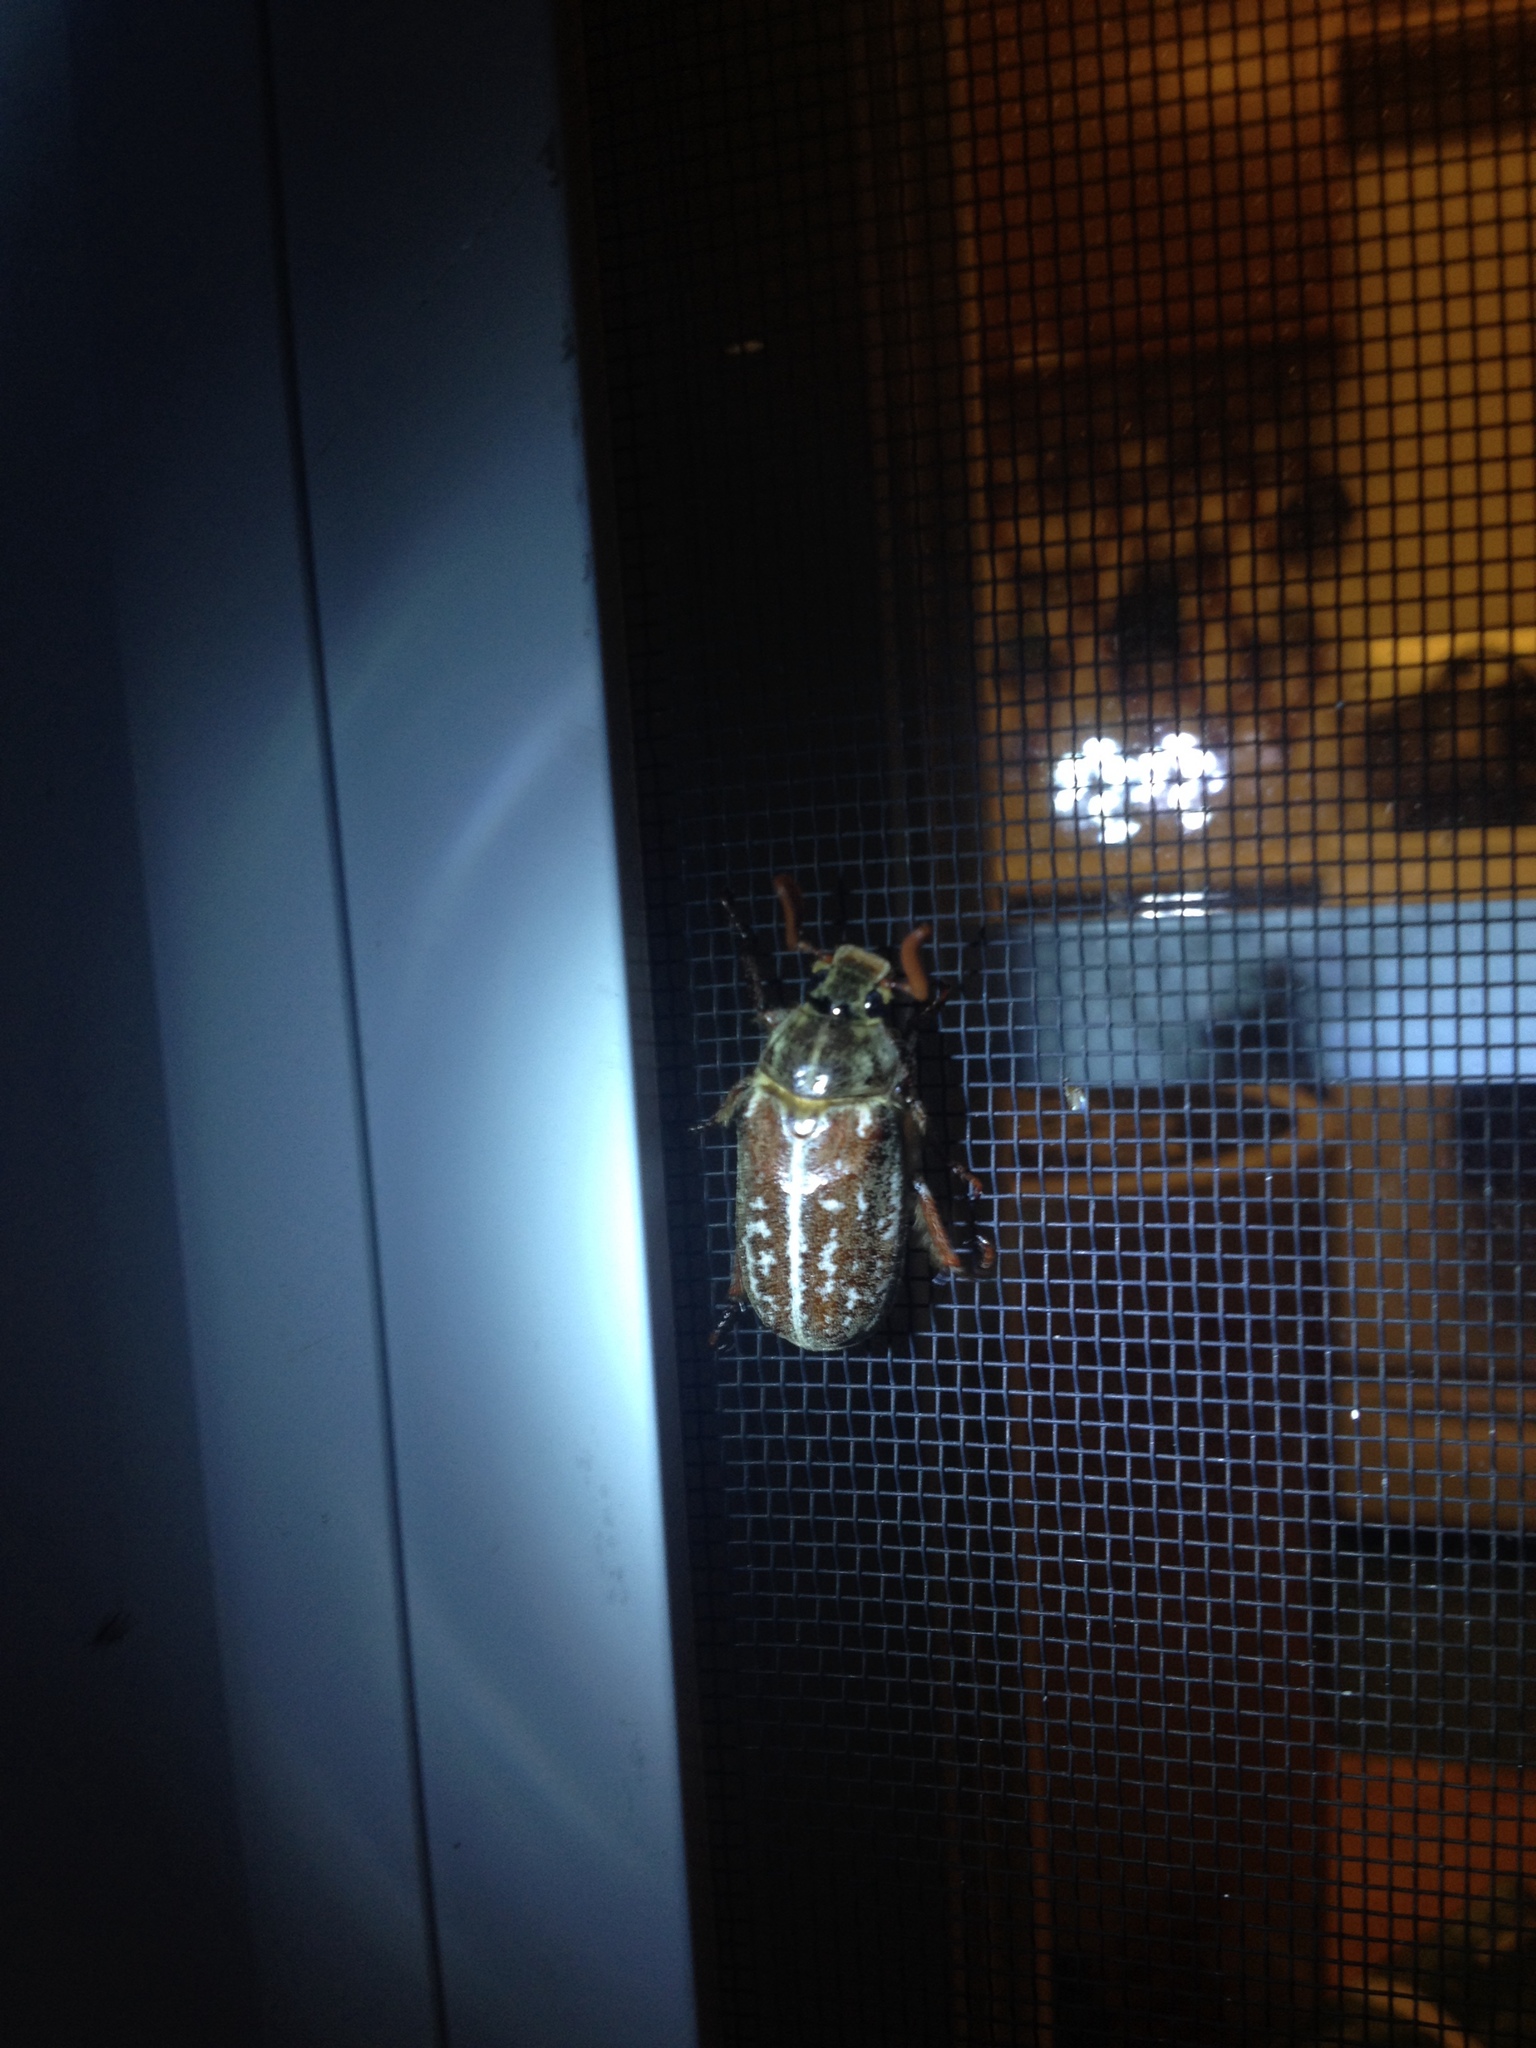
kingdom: Animalia
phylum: Arthropoda
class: Insecta
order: Coleoptera
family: Scarabaeidae
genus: Polyphylla
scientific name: Polyphylla variolosa
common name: Variegated june beetle
